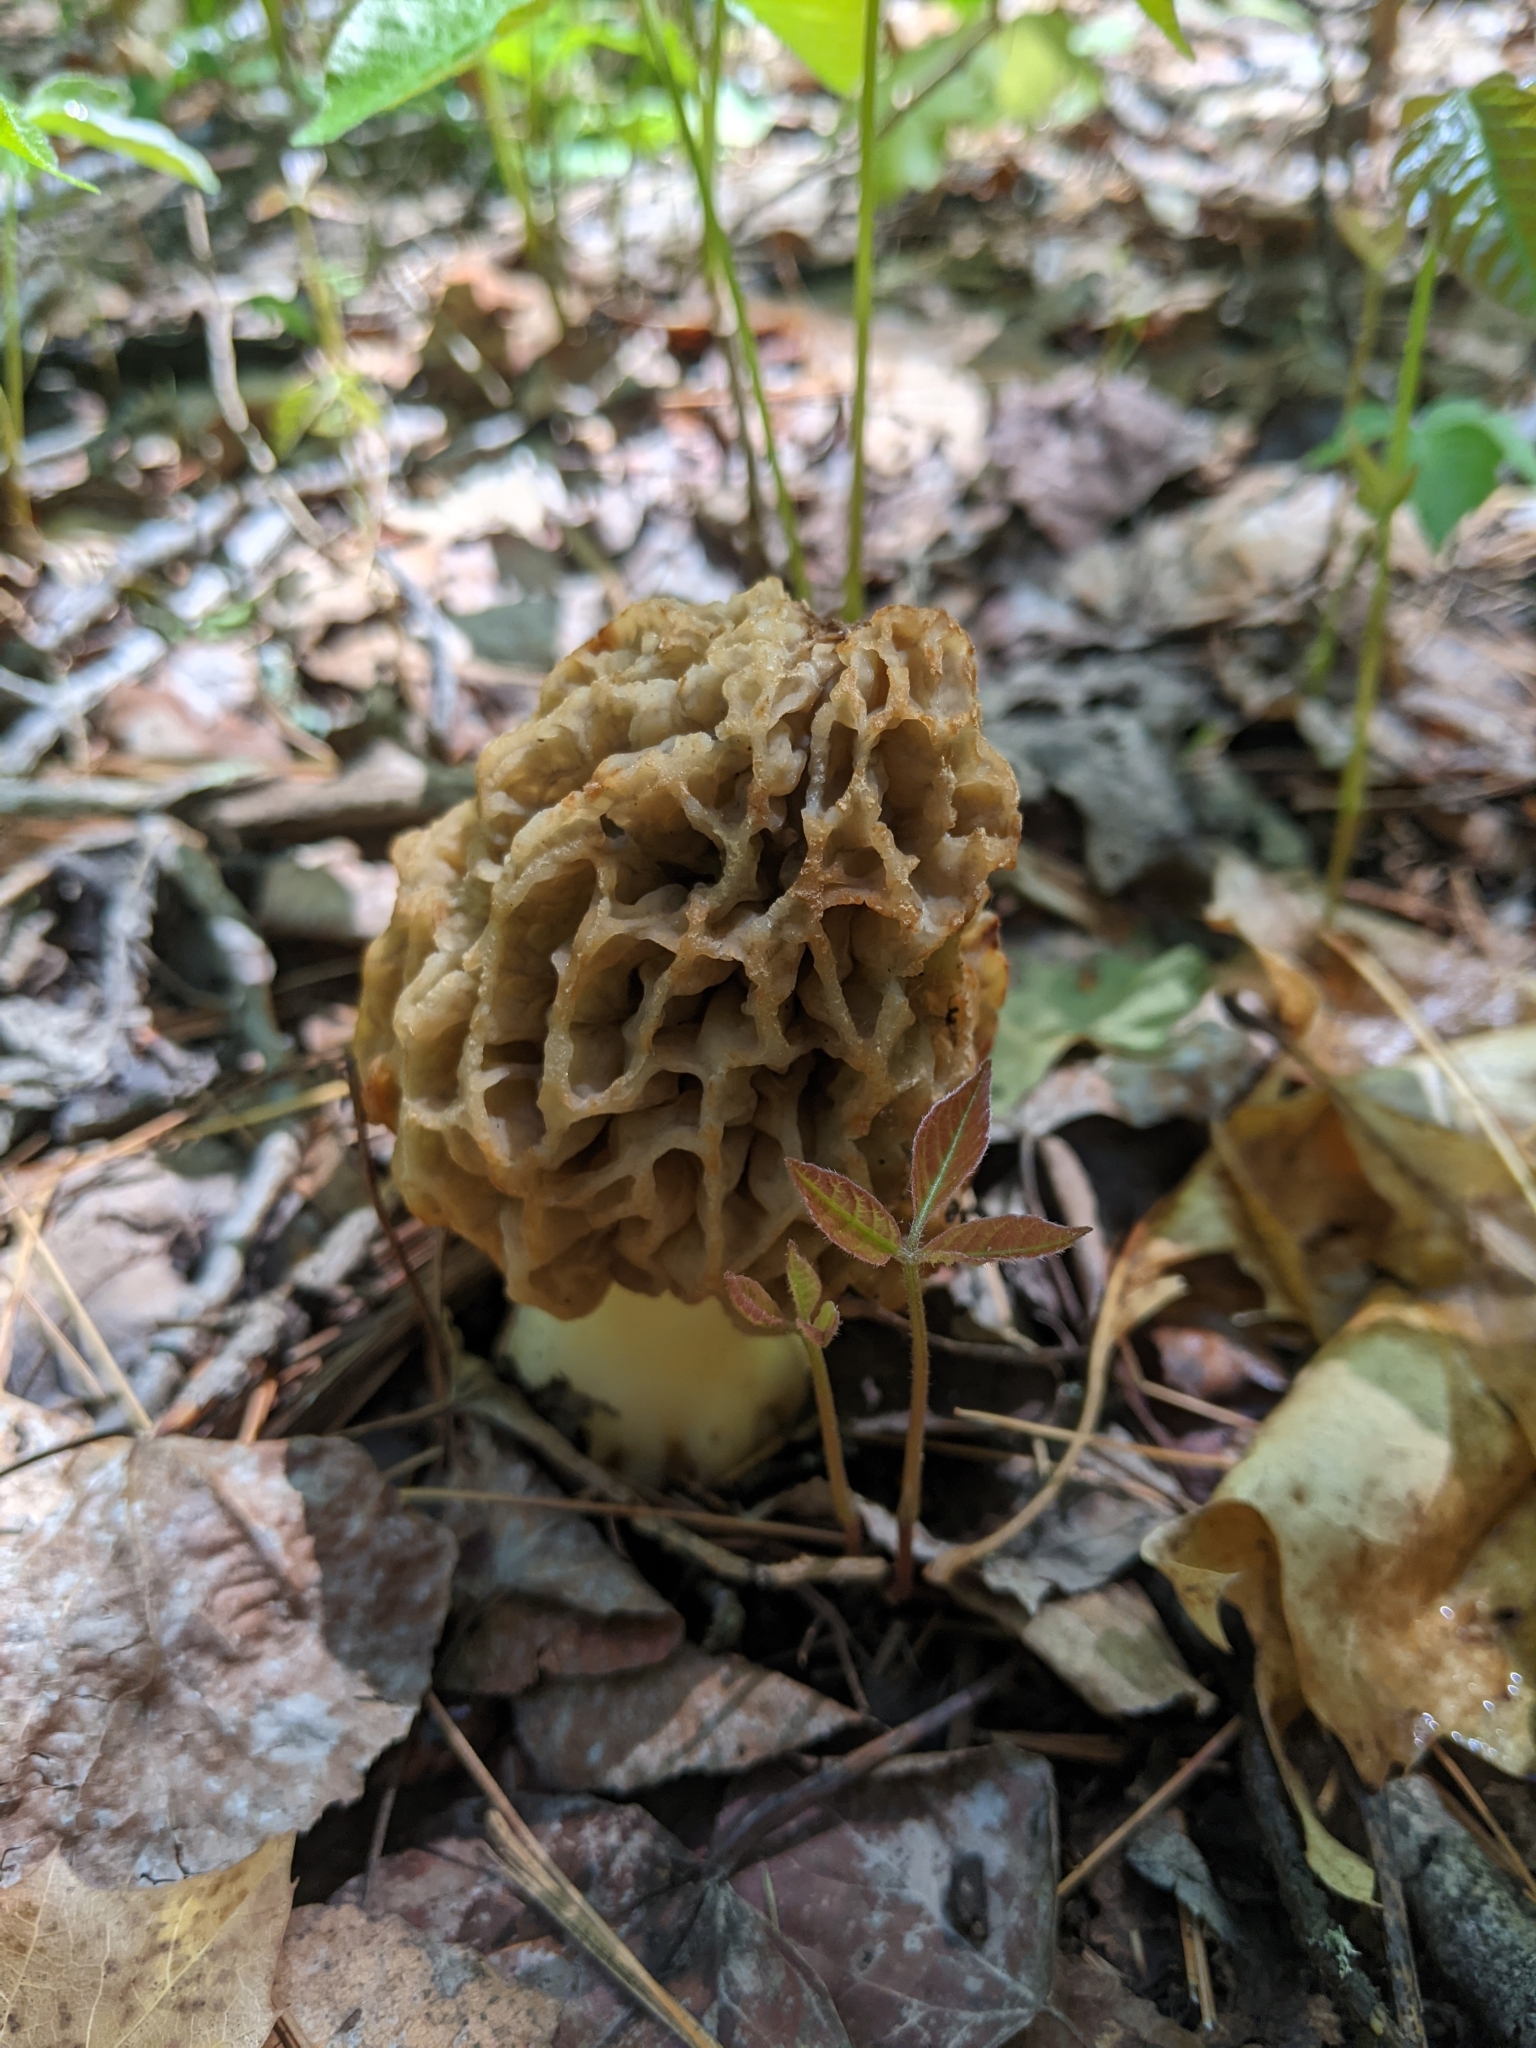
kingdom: Fungi
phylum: Ascomycota
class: Pezizomycetes
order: Pezizales
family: Morchellaceae
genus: Morchella
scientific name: Morchella americana
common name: White morel
